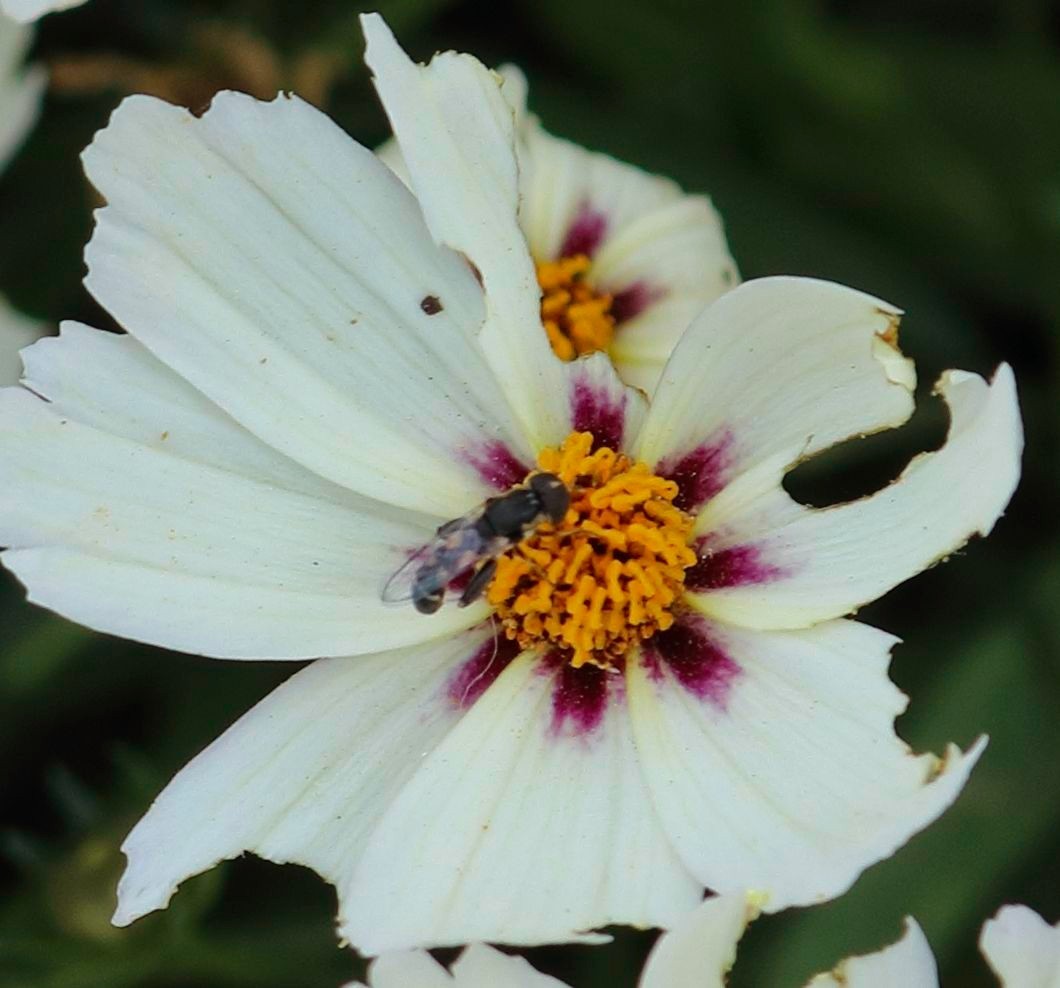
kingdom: Animalia
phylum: Arthropoda
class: Insecta
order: Diptera
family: Syrphidae
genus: Syritta
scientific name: Syritta pipiens
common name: Hover fly
